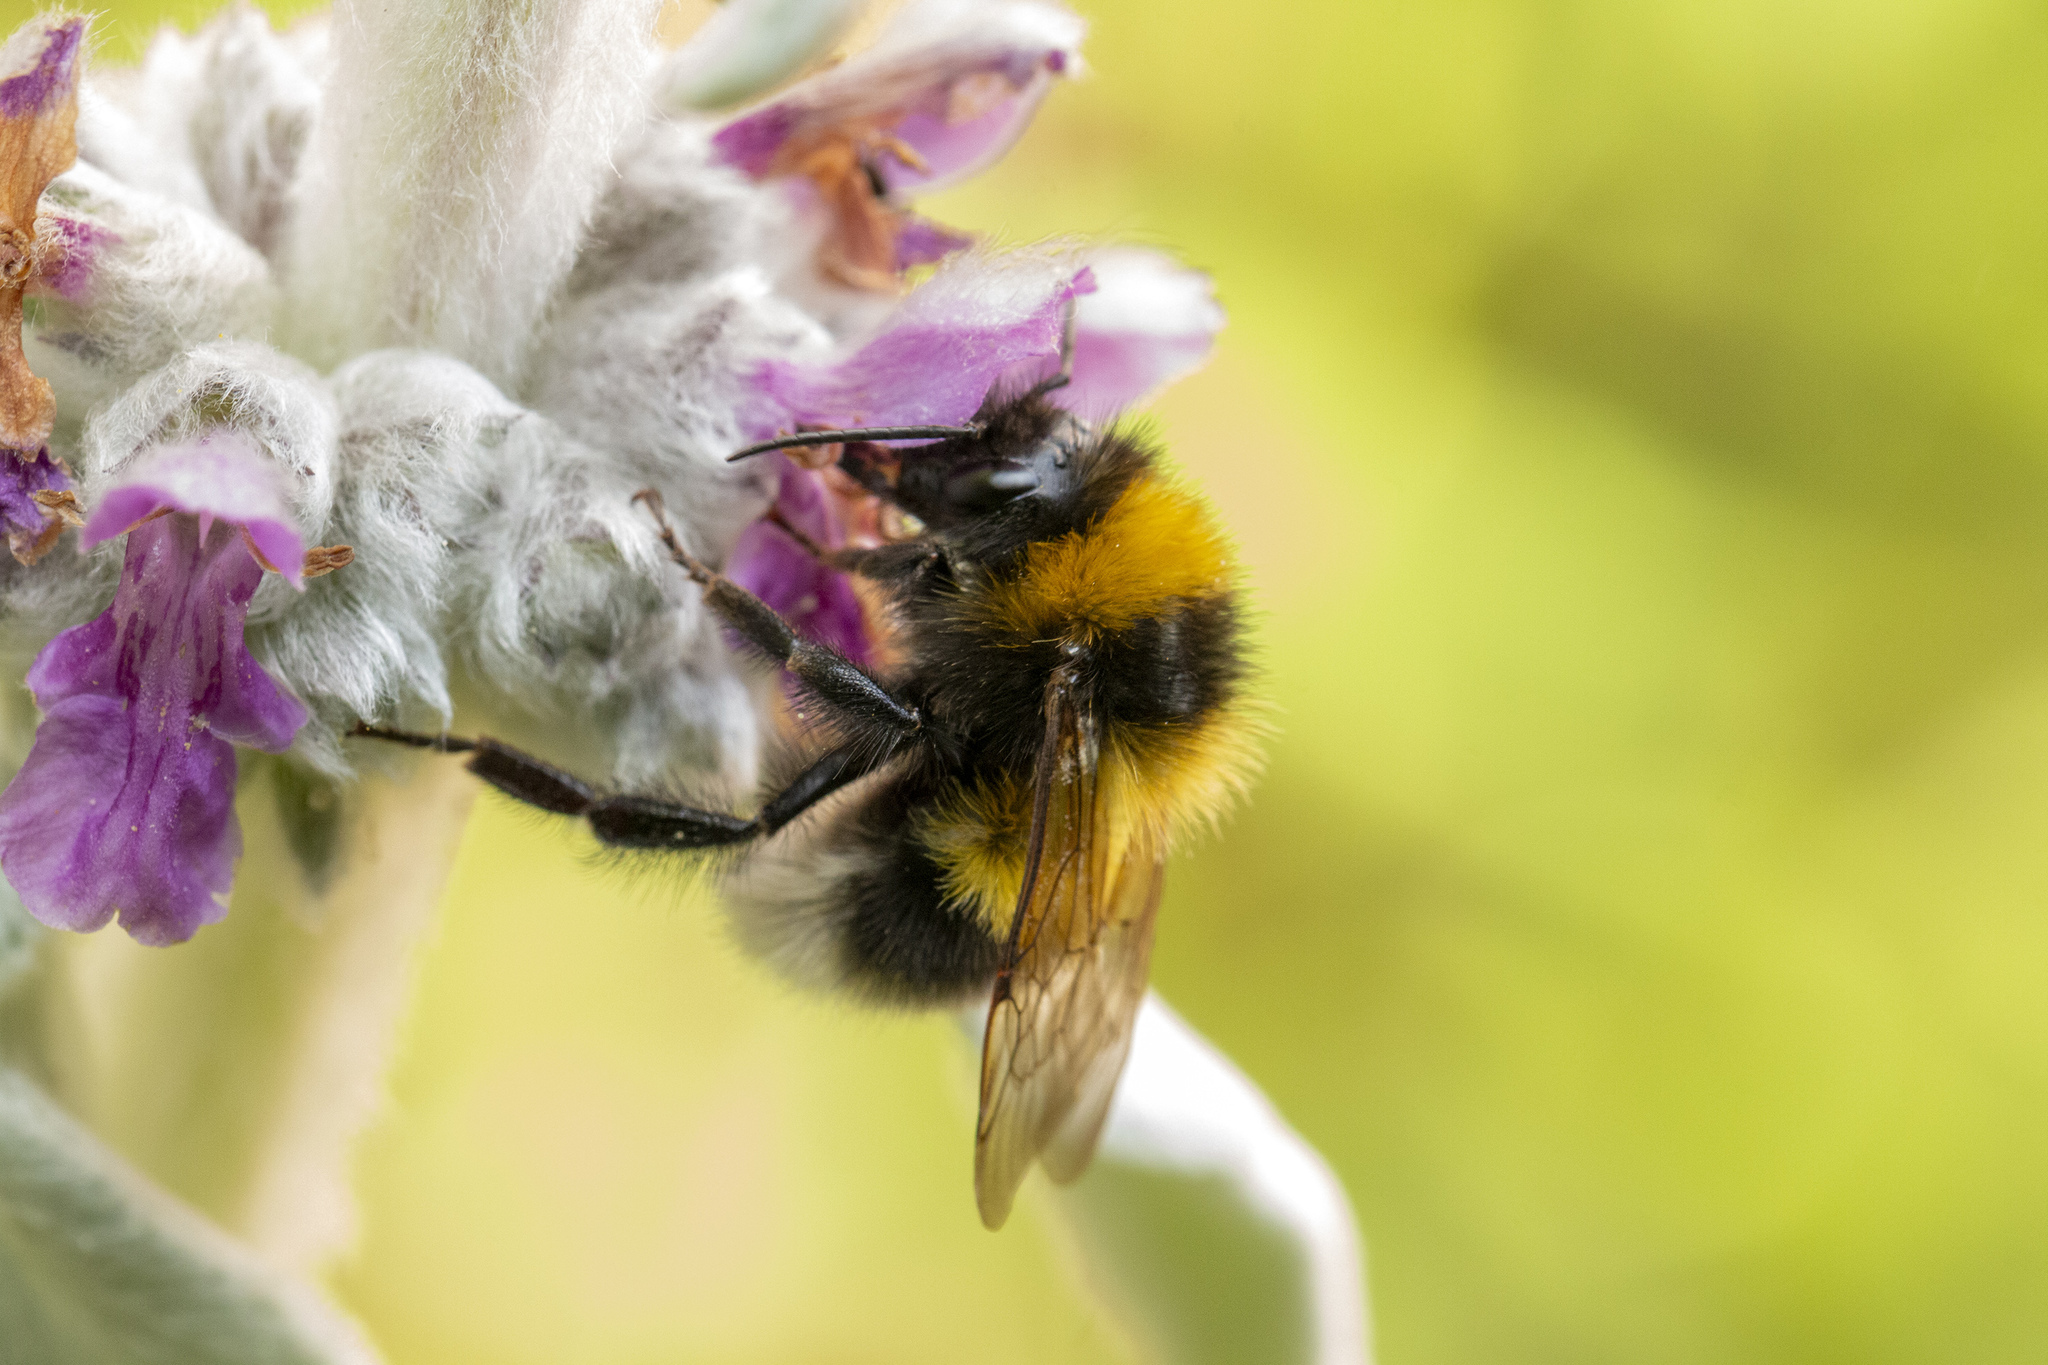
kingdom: Animalia
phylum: Arthropoda
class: Insecta
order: Hymenoptera
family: Apidae
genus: Bombus
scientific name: Bombus hortorum
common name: Garden bumblebee
